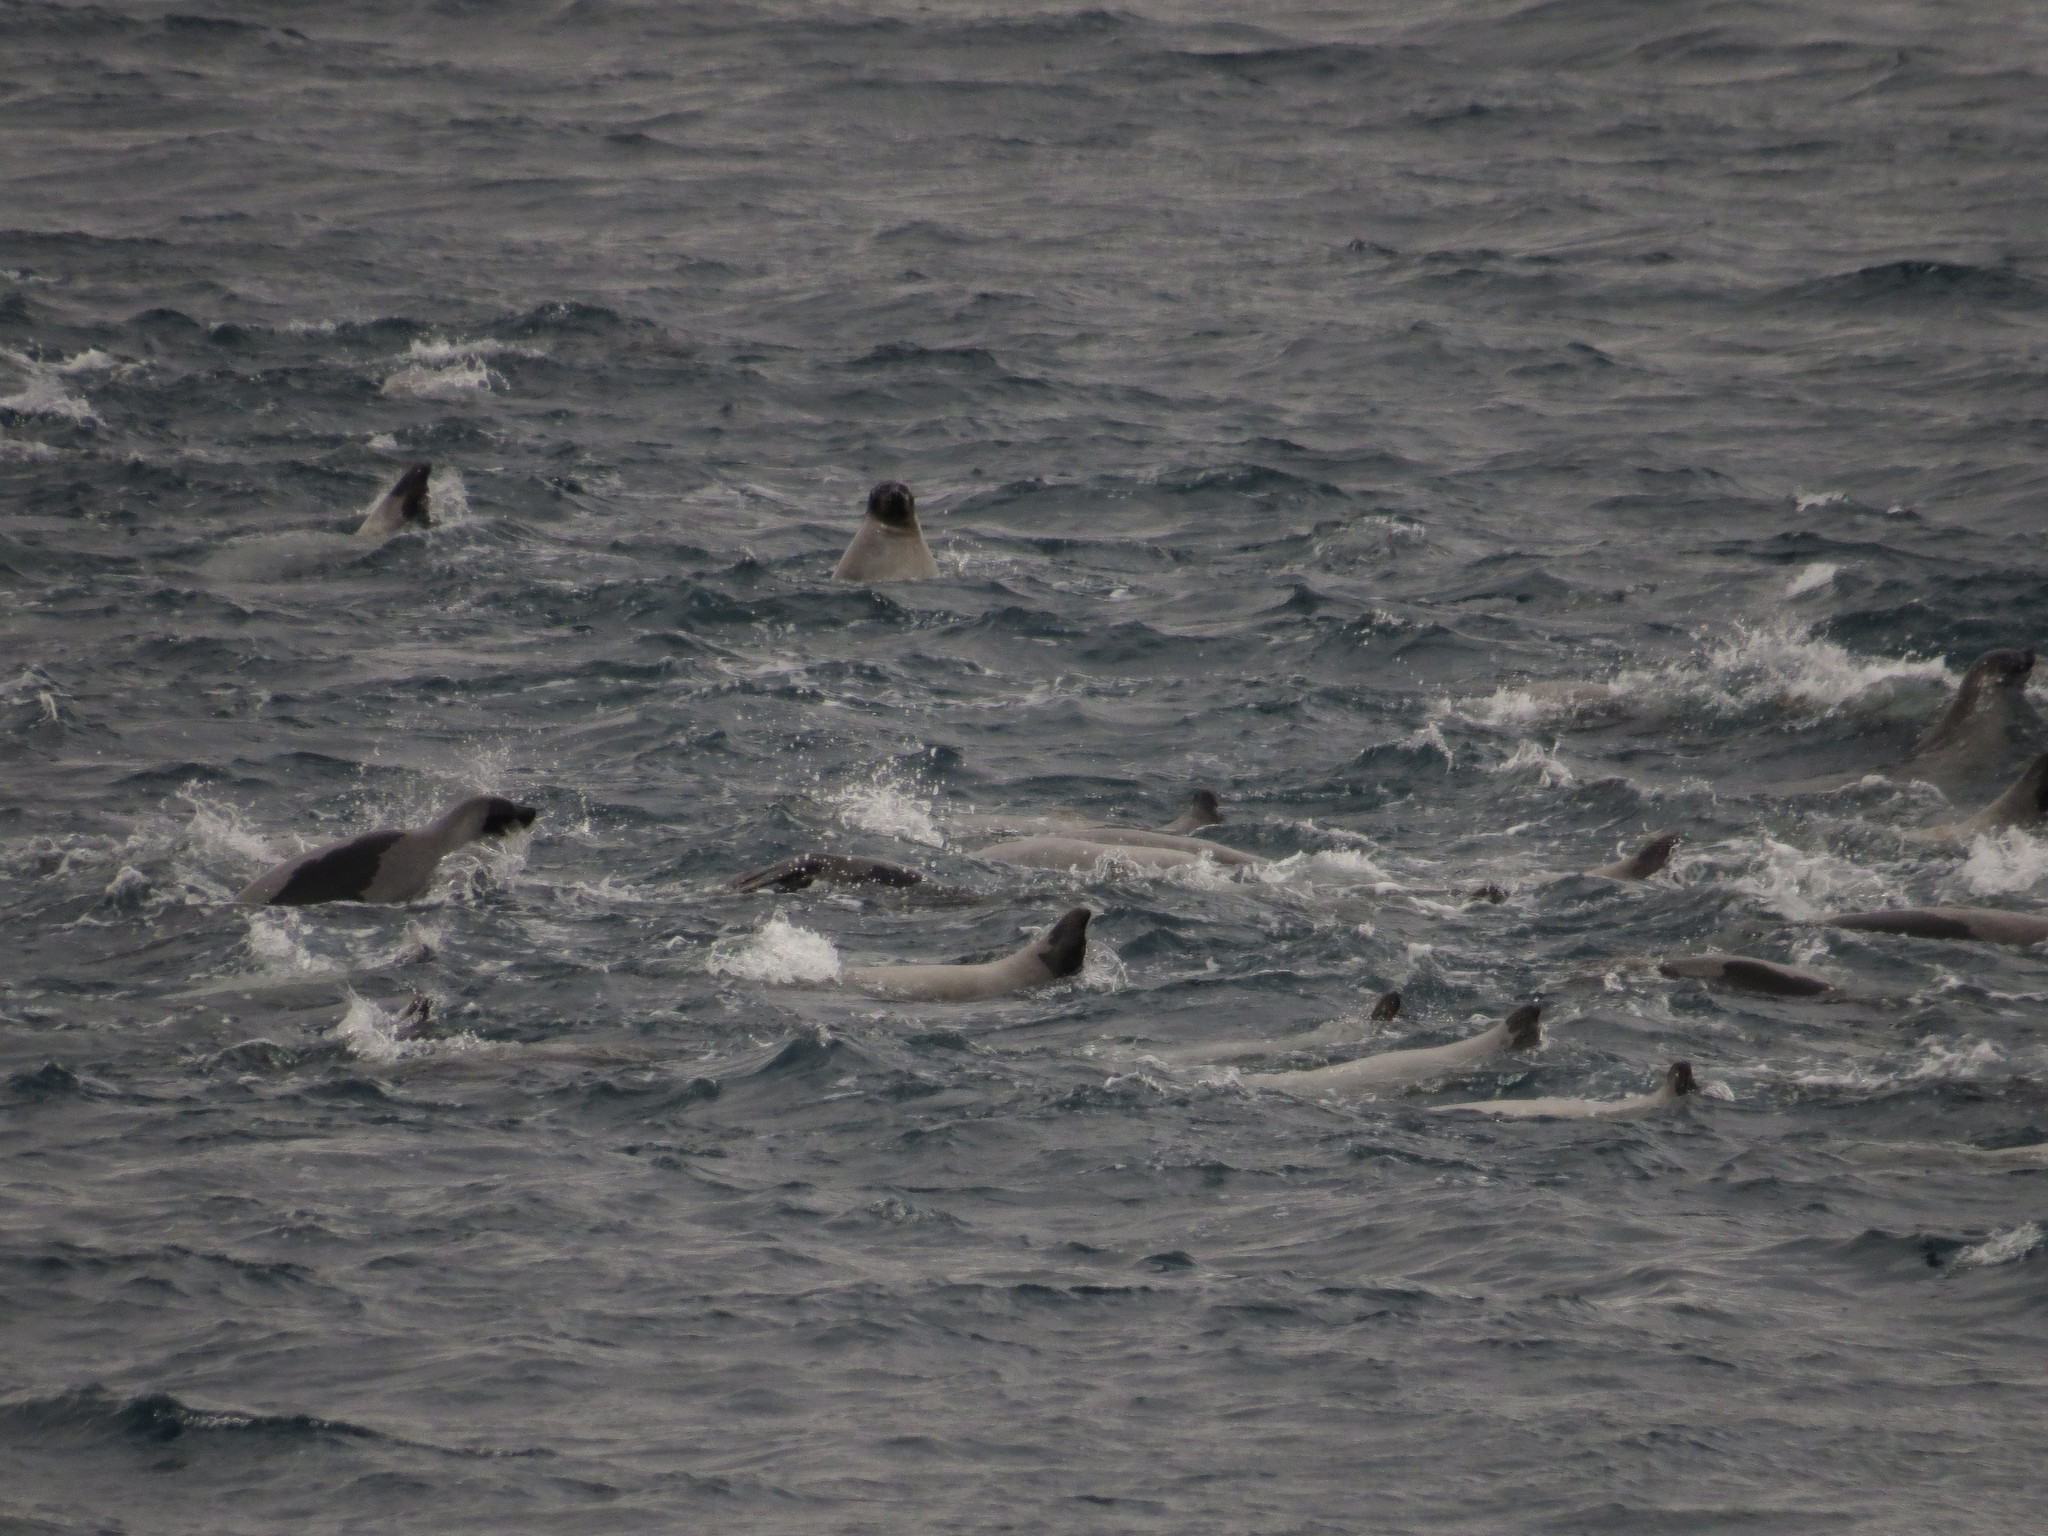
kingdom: Animalia
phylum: Chordata
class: Mammalia
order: Carnivora
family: Phocidae
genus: Pagophilus
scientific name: Pagophilus groenlandicus
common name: Harp seal
